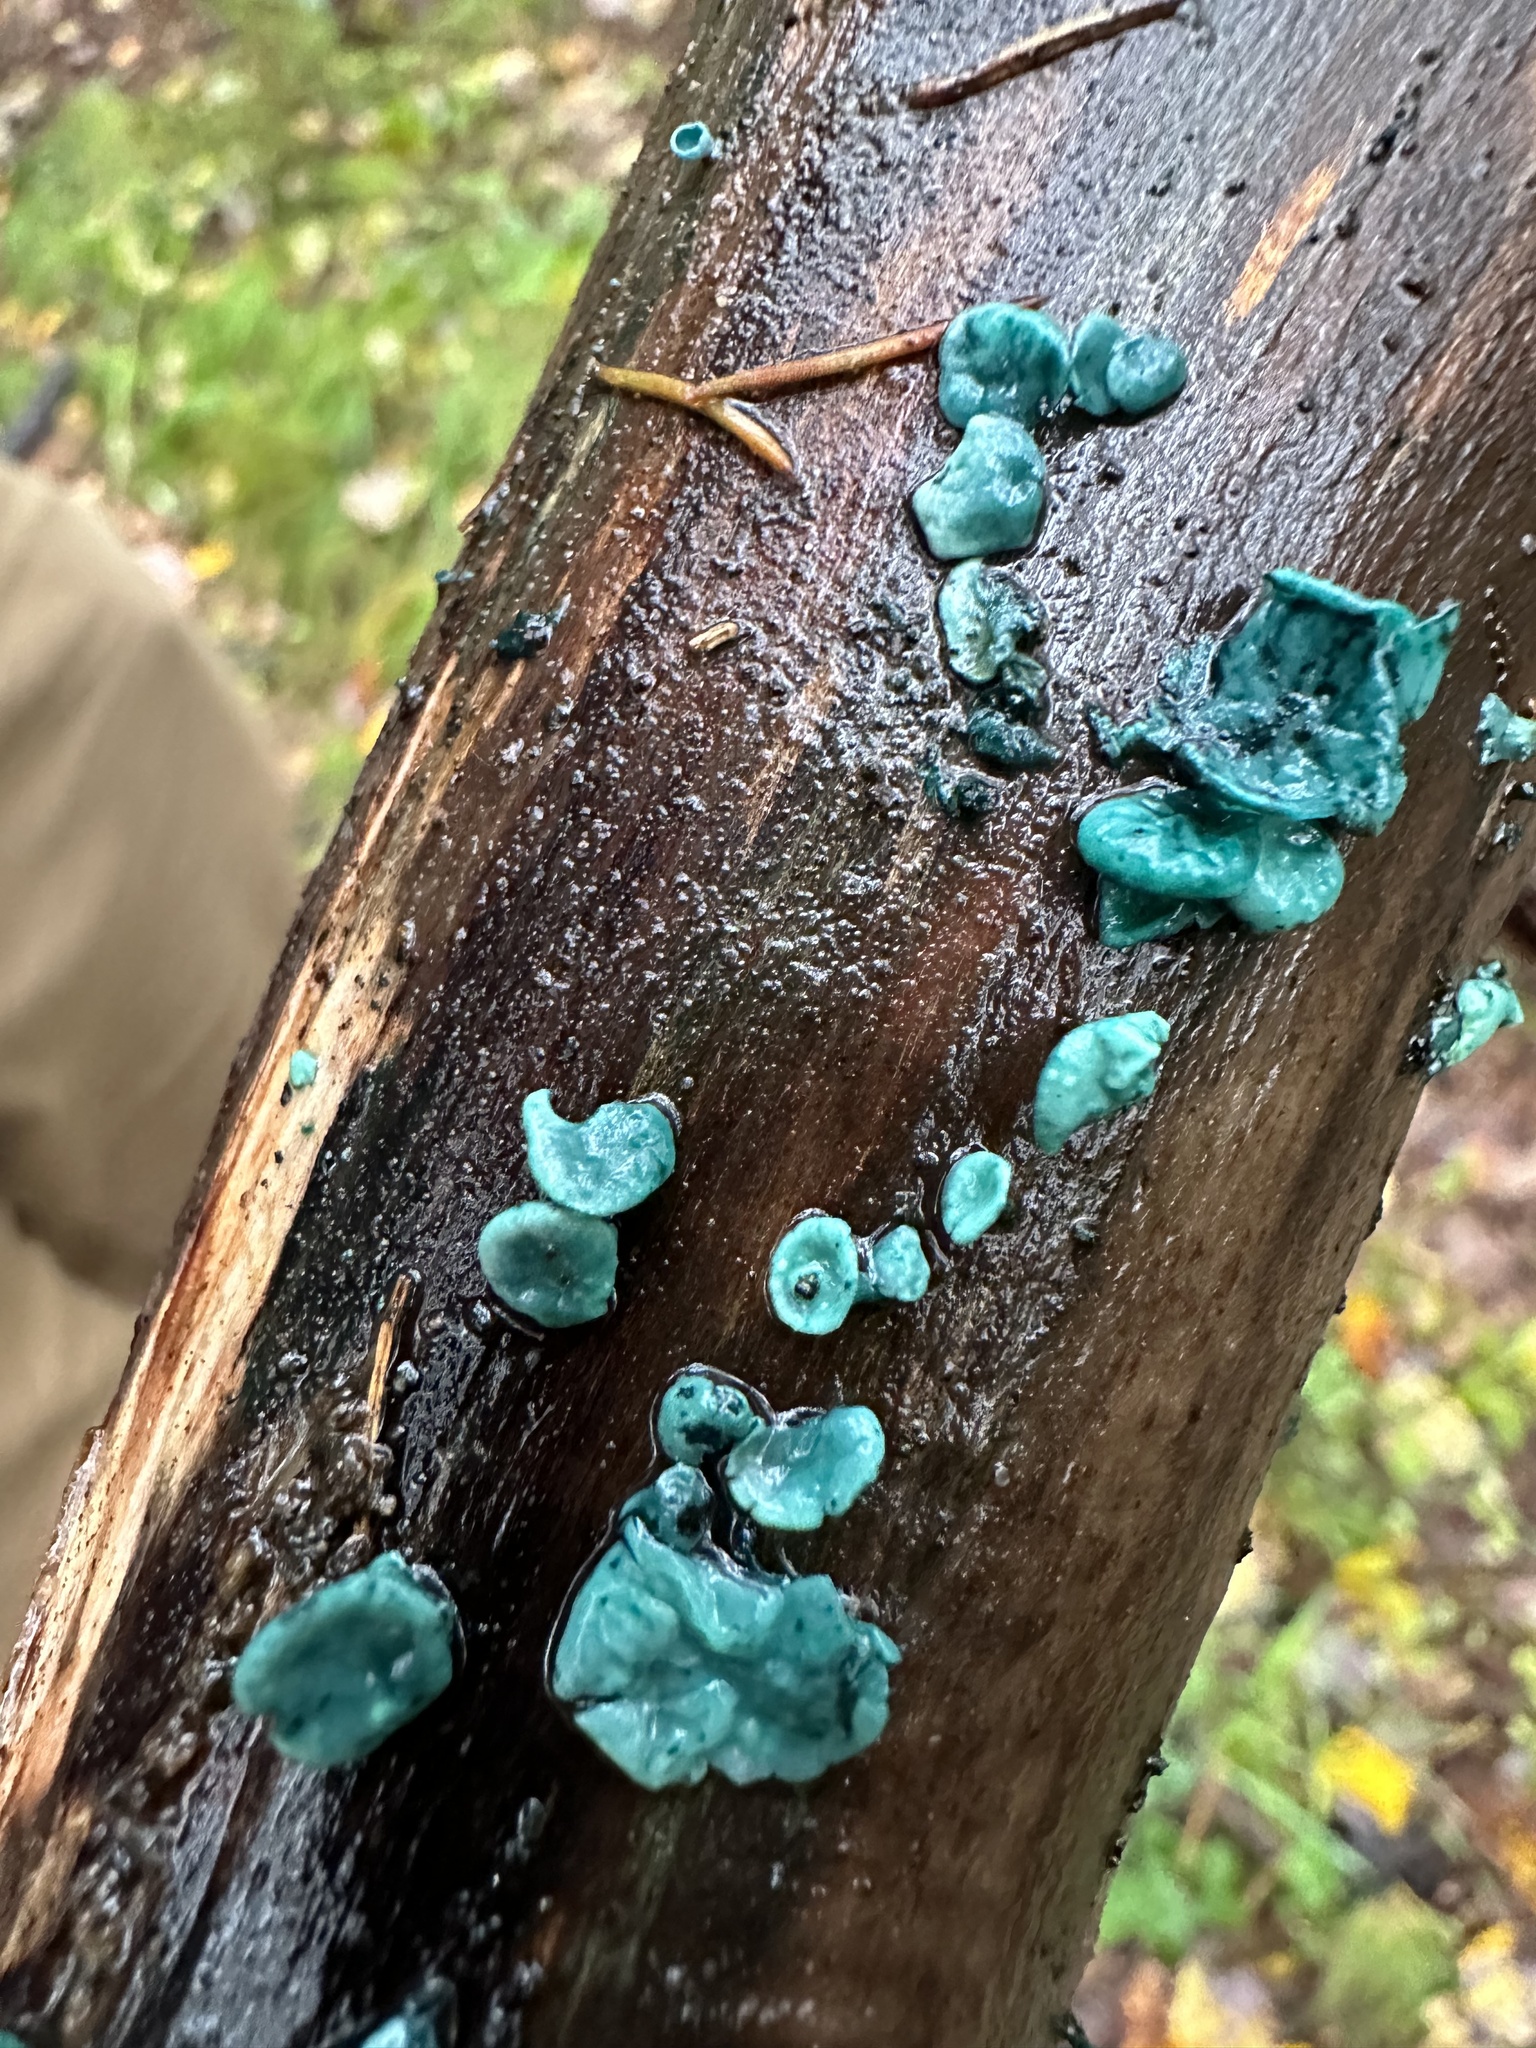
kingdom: Fungi
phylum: Ascomycota
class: Leotiomycetes
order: Helotiales
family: Chlorociboriaceae
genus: Chlorociboria
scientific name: Chlorociboria aeruginascens
